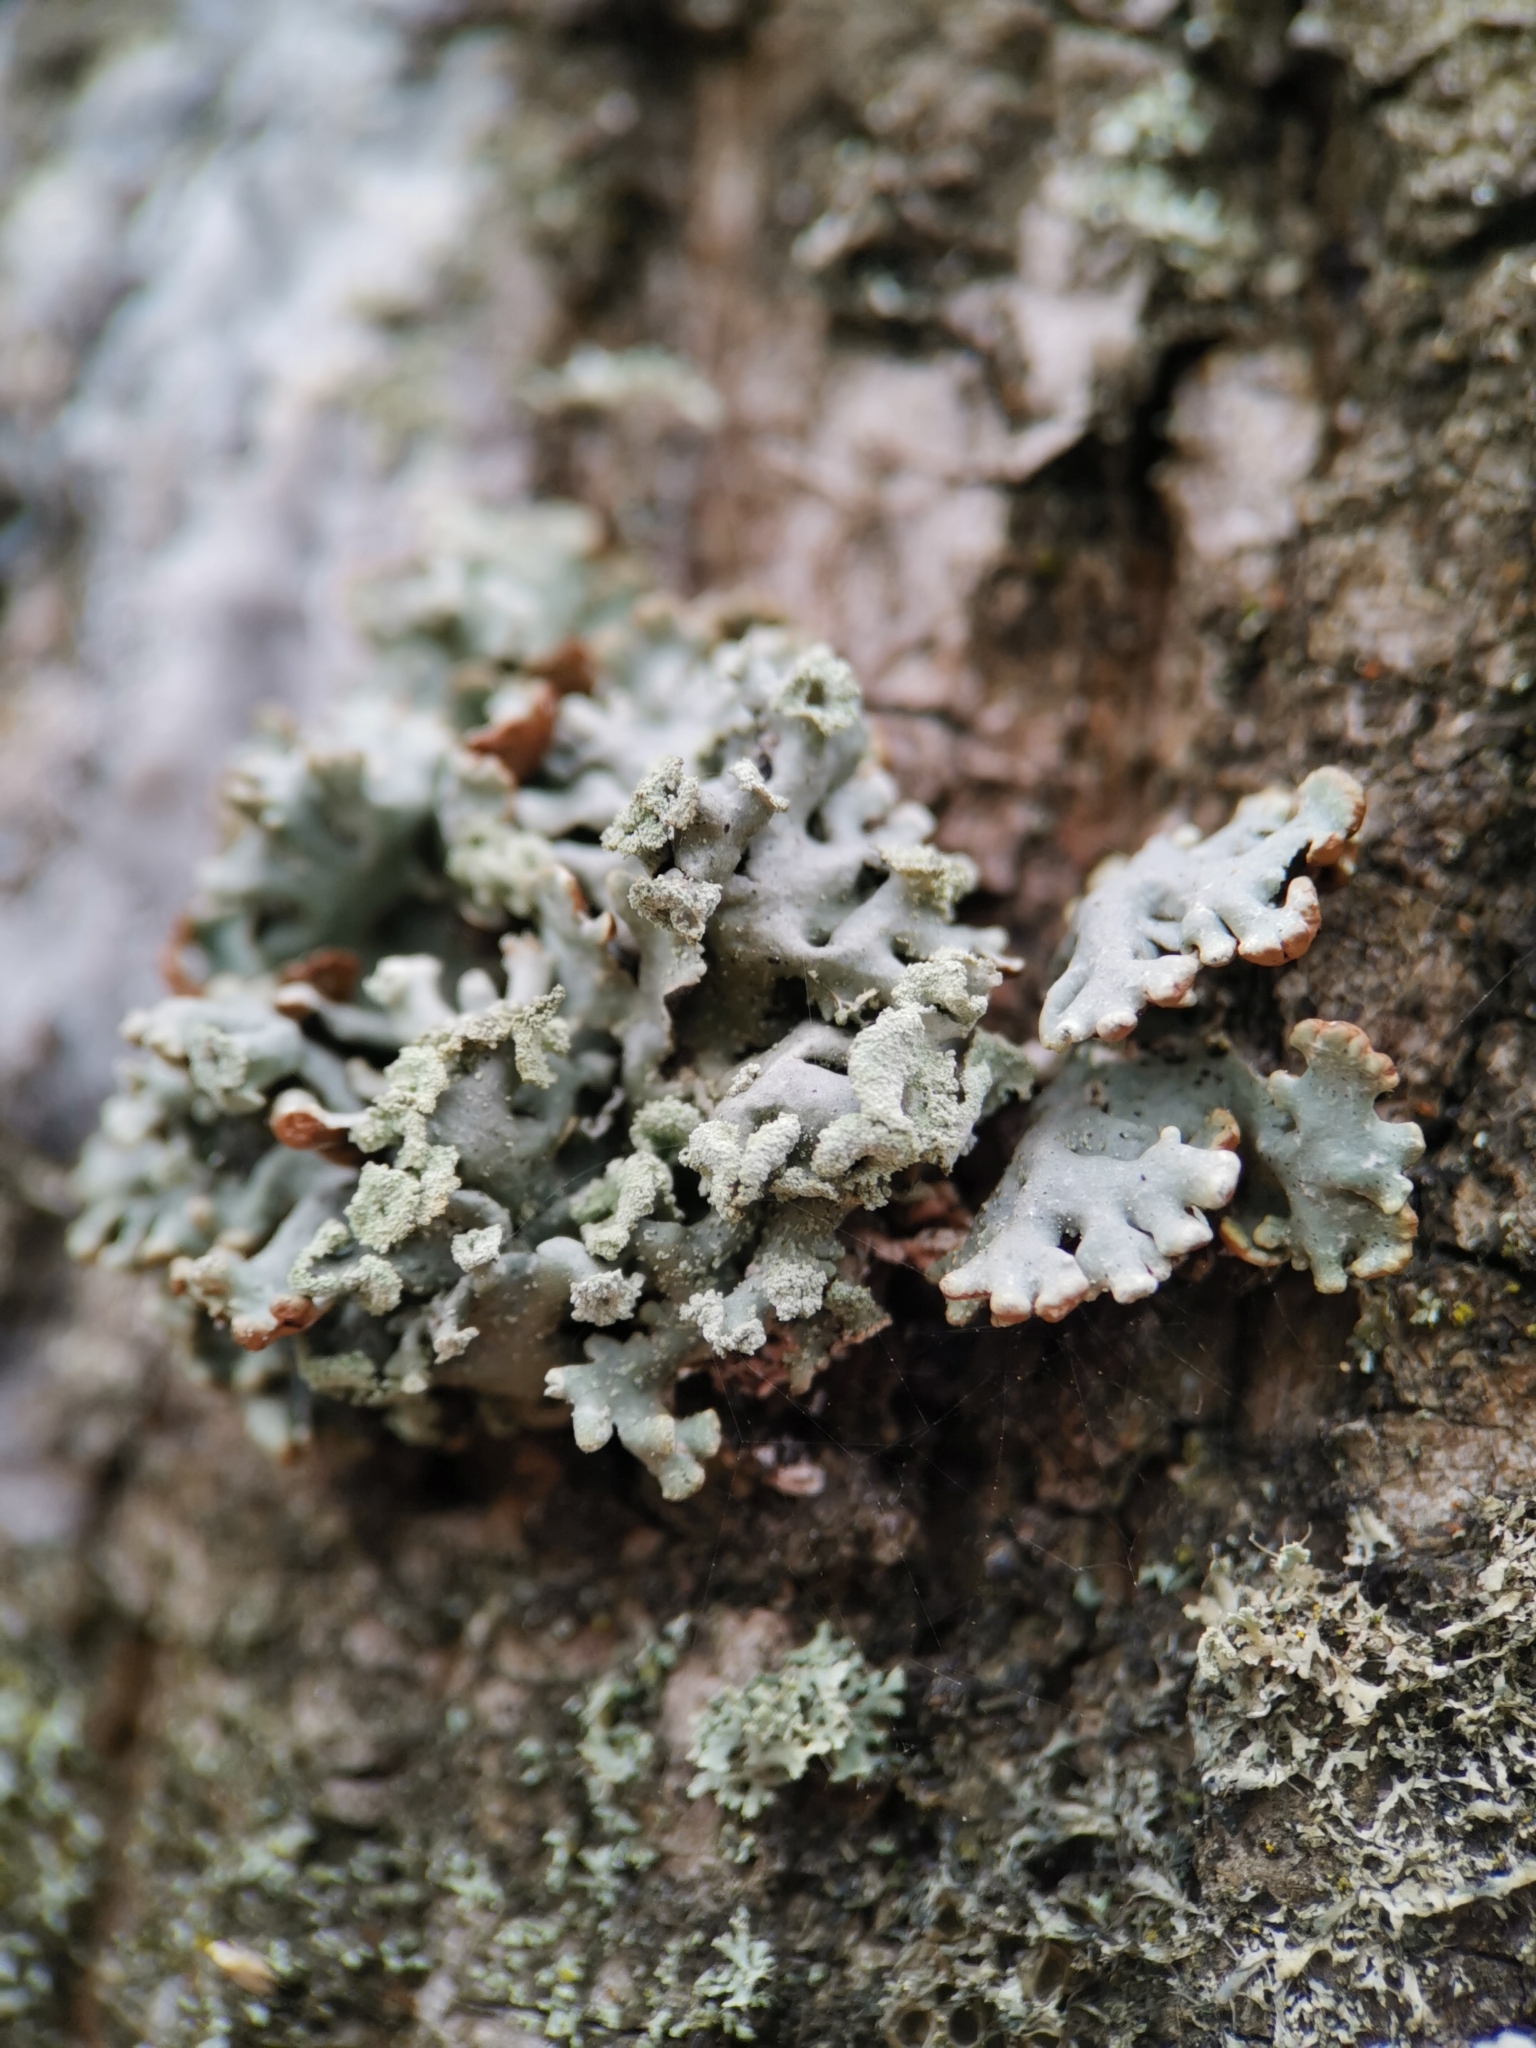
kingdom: Fungi
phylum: Ascomycota
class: Lecanoromycetes
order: Lecanorales
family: Parmeliaceae
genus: Hypogymnia
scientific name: Hypogymnia physodes
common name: Dark crottle
